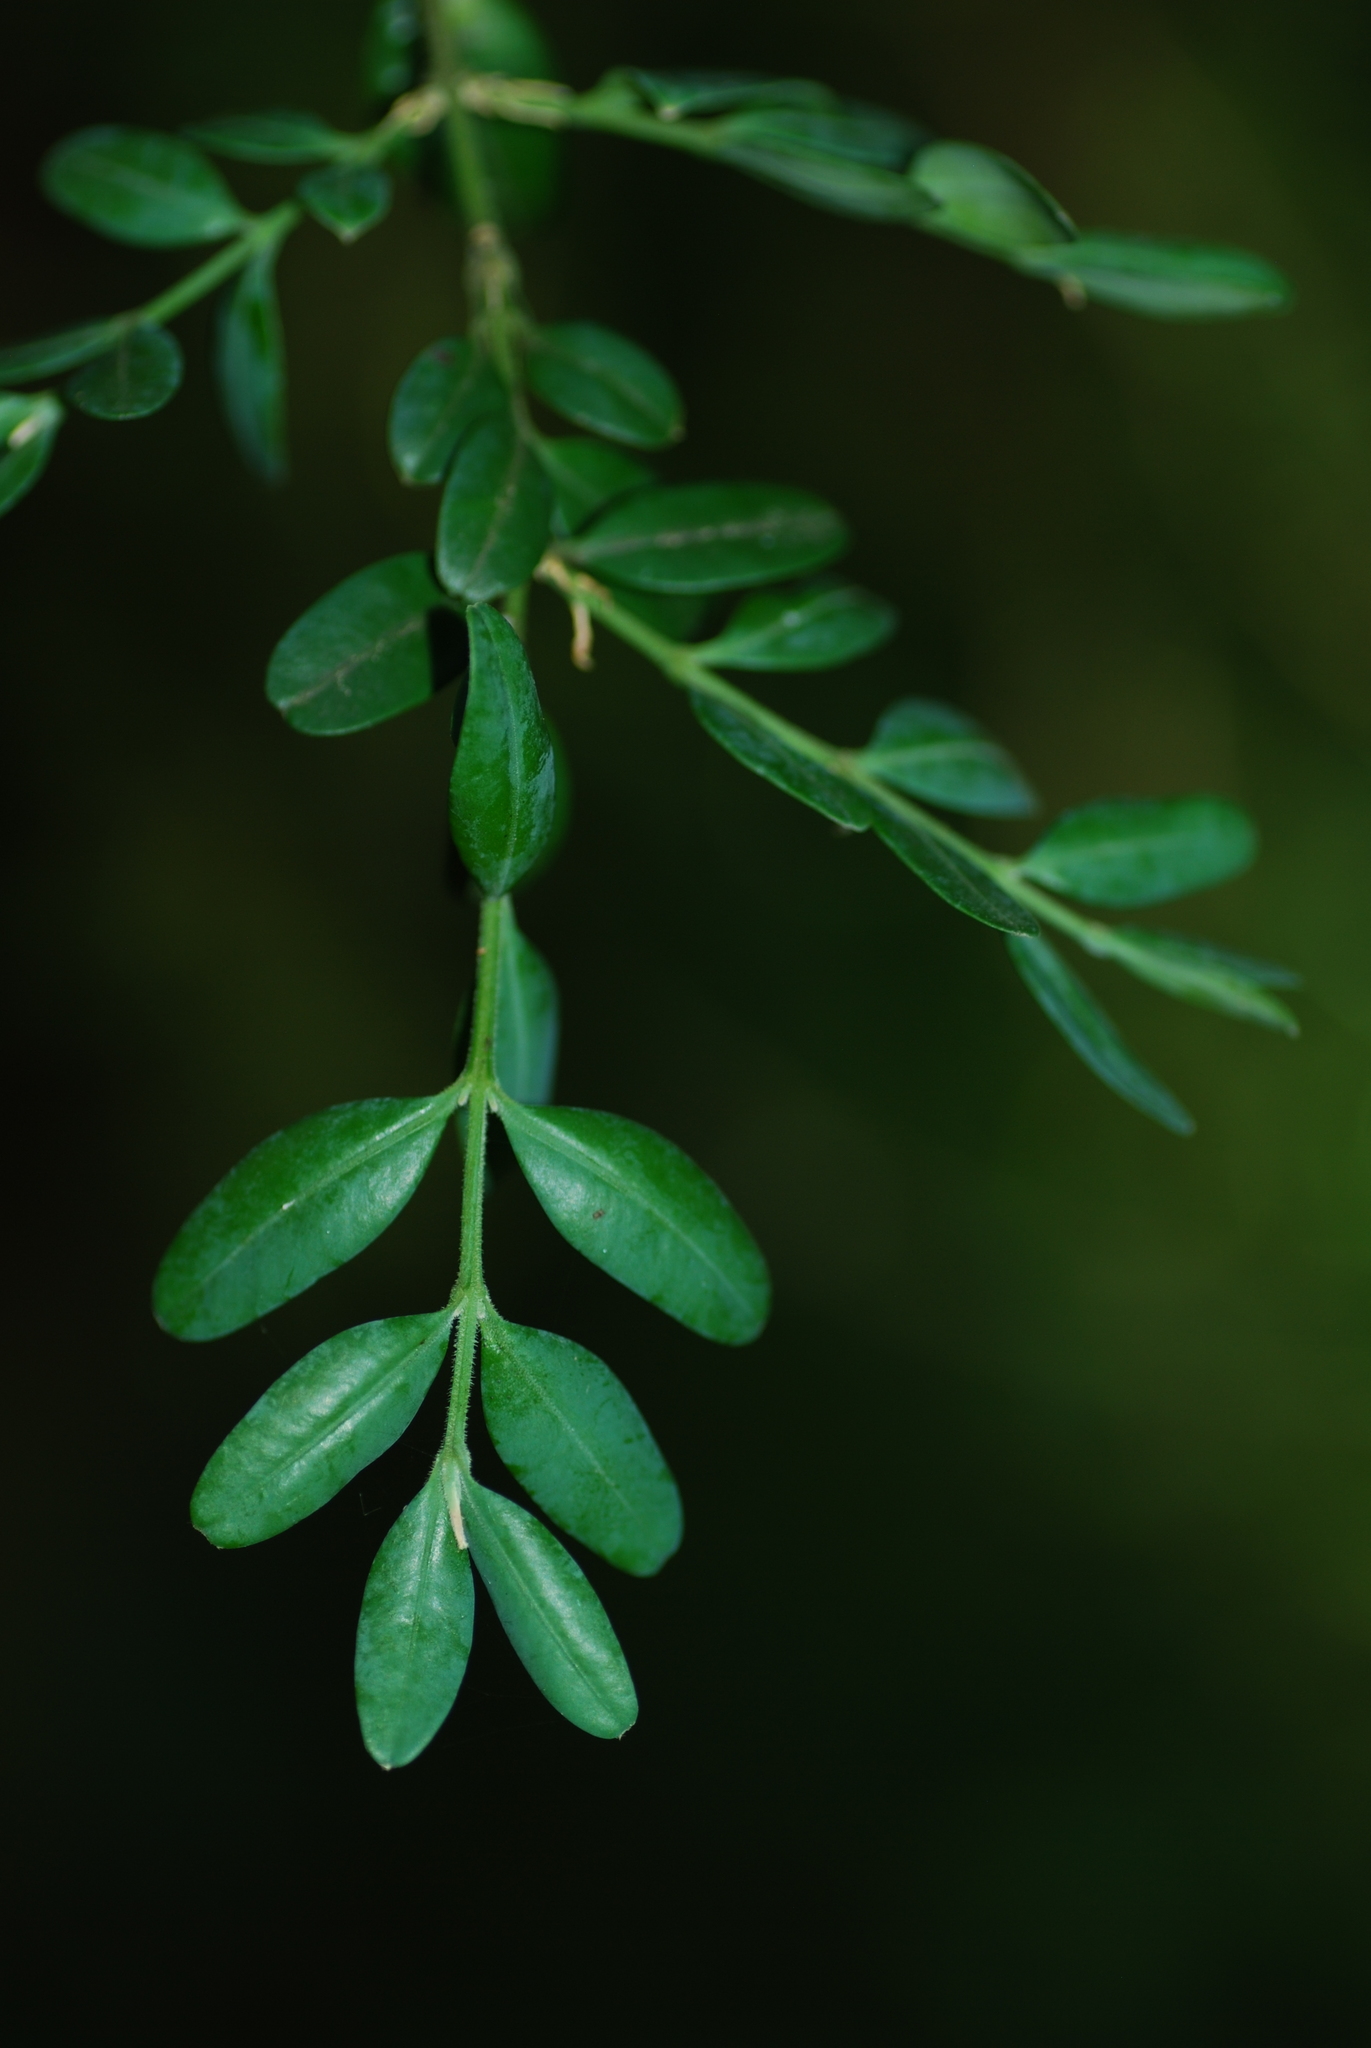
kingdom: Plantae
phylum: Tracheophyta
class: Magnoliopsida
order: Buxales
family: Buxaceae
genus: Buxus
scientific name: Buxus sempervirens
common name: Box
